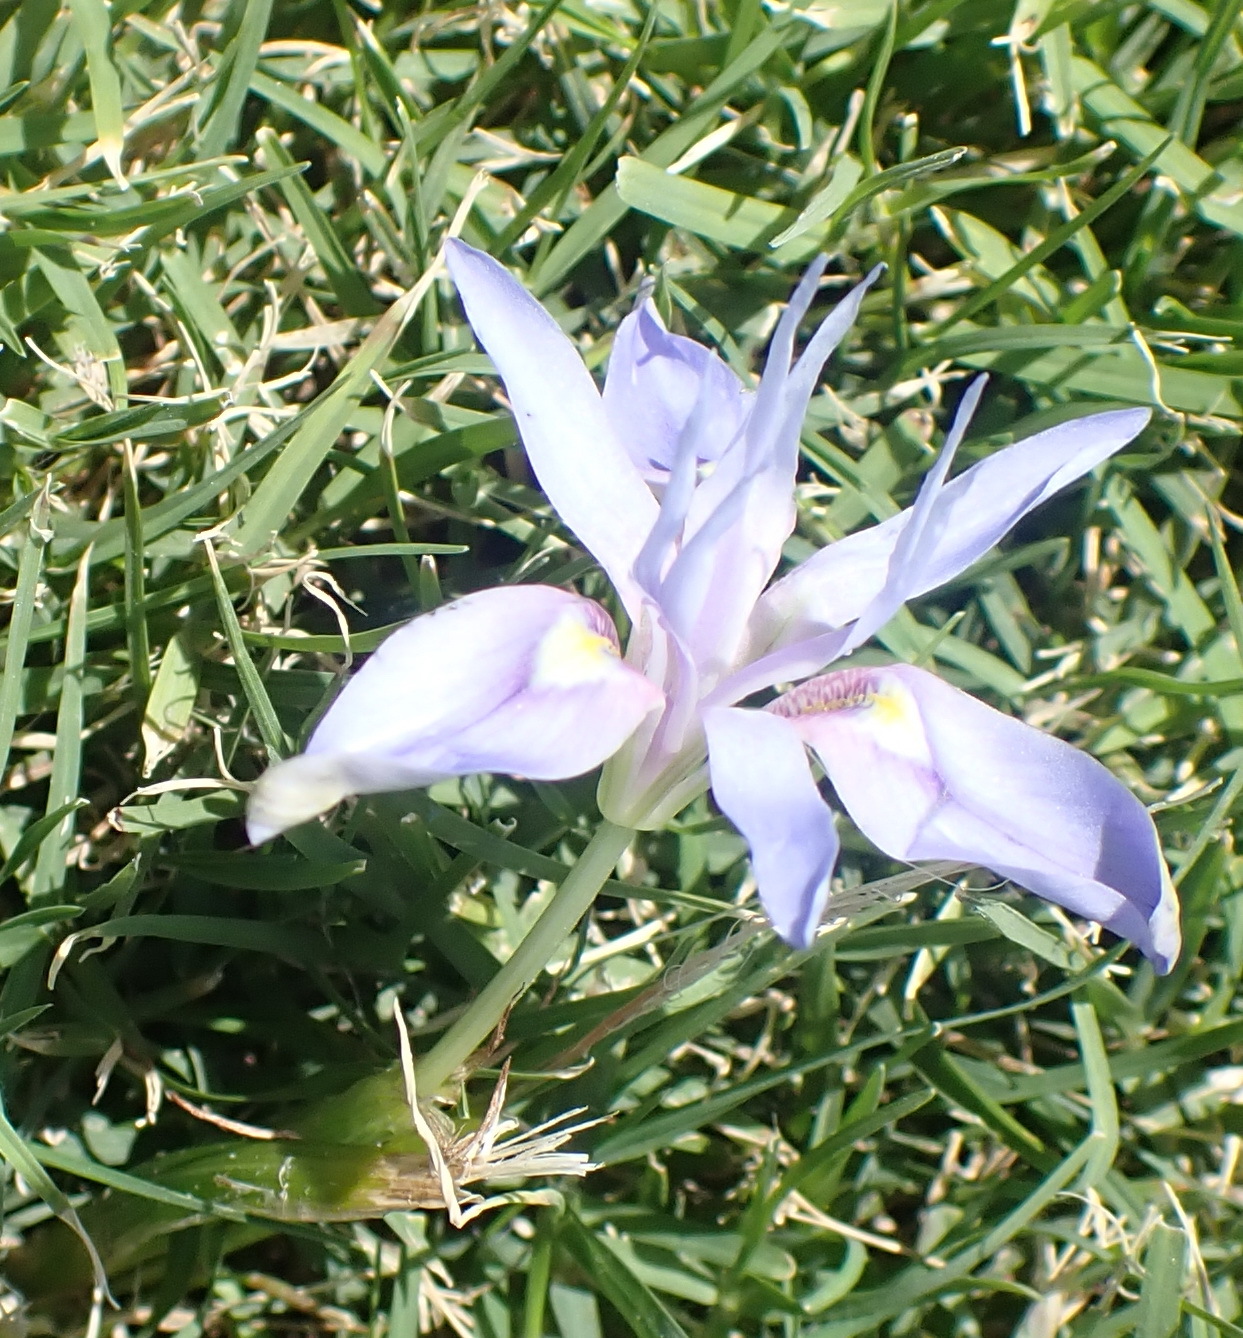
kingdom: Plantae
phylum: Tracheophyta
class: Liliopsida
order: Asparagales
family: Iridaceae
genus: Moraea
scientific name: Moraea australis
